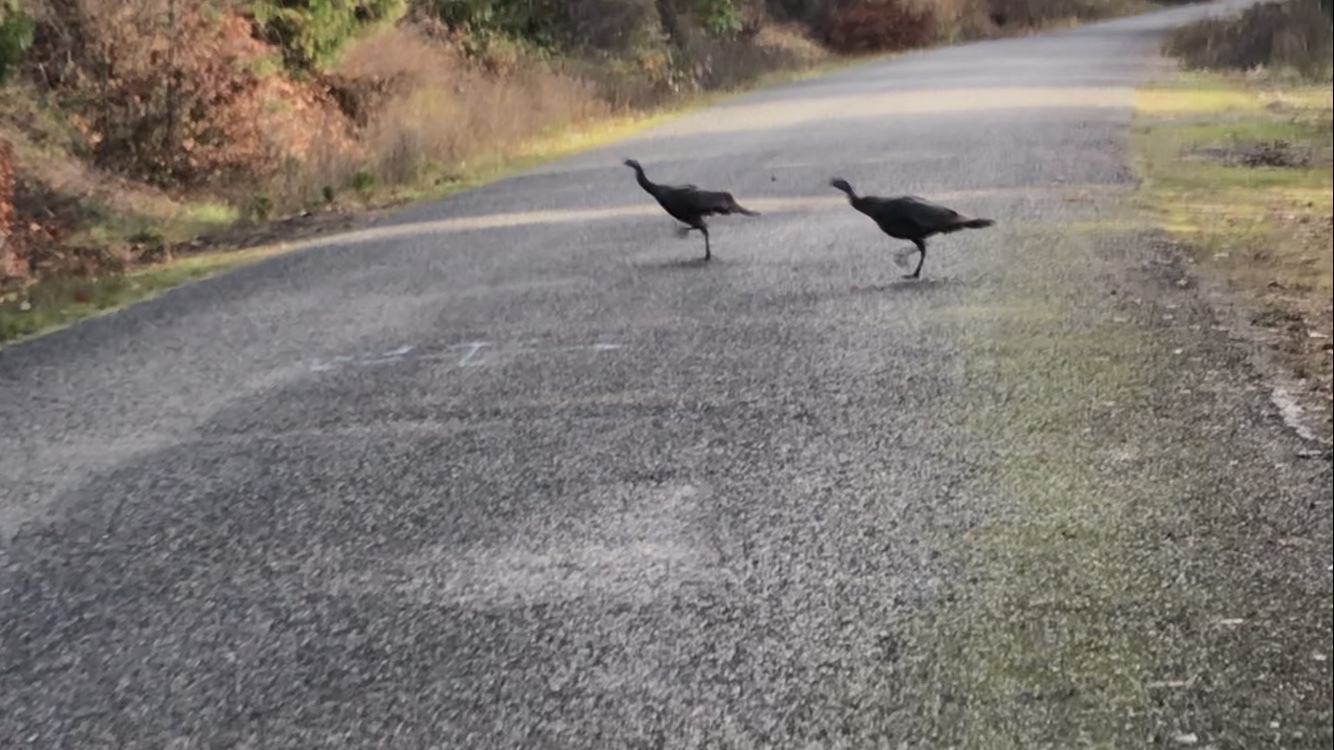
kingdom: Animalia
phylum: Chordata
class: Aves
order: Galliformes
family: Phasianidae
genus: Meleagris
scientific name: Meleagris gallopavo
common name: Wild turkey
